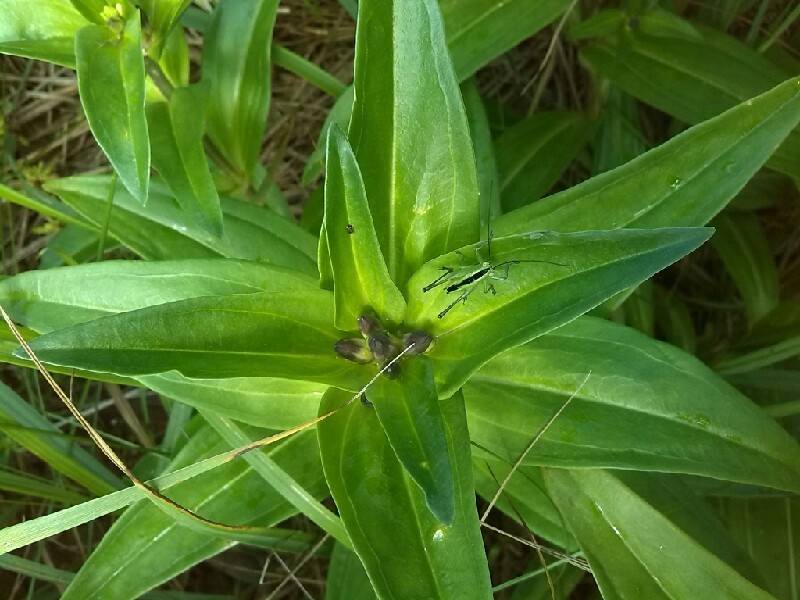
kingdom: Plantae
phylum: Tracheophyta
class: Magnoliopsida
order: Gentianales
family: Gentianaceae
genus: Gentiana
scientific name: Gentiana cruciata
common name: Cross gentian
